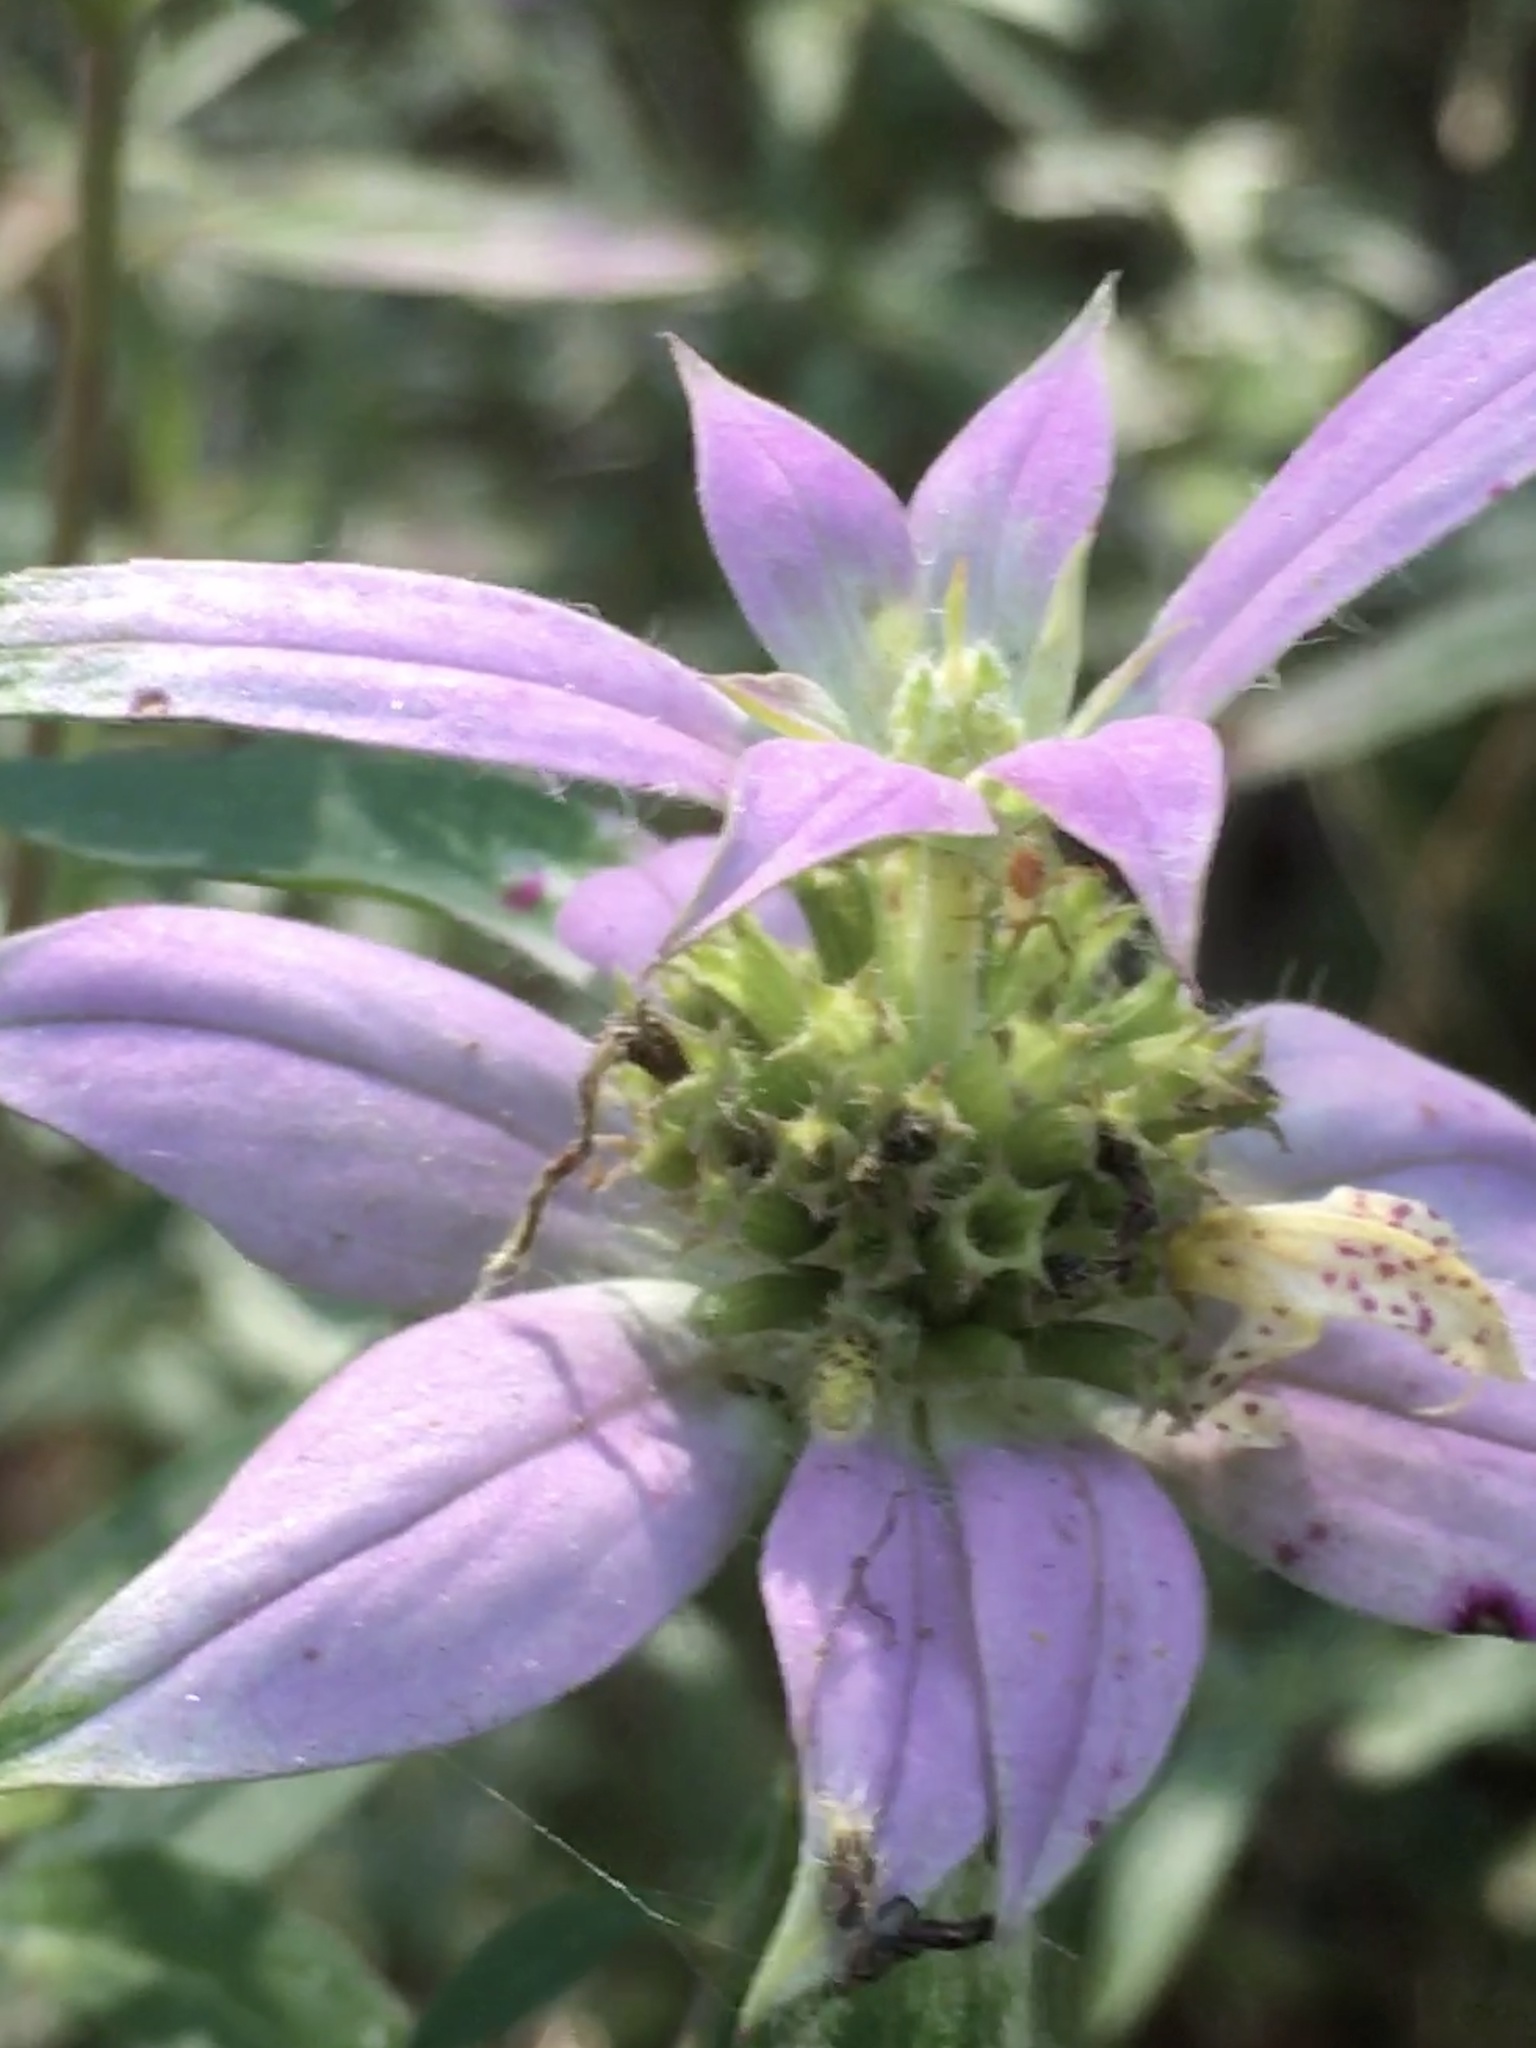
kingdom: Plantae
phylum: Tracheophyta
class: Magnoliopsida
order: Lamiales
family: Lamiaceae
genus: Monarda
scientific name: Monarda punctata
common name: Dotted monarda
